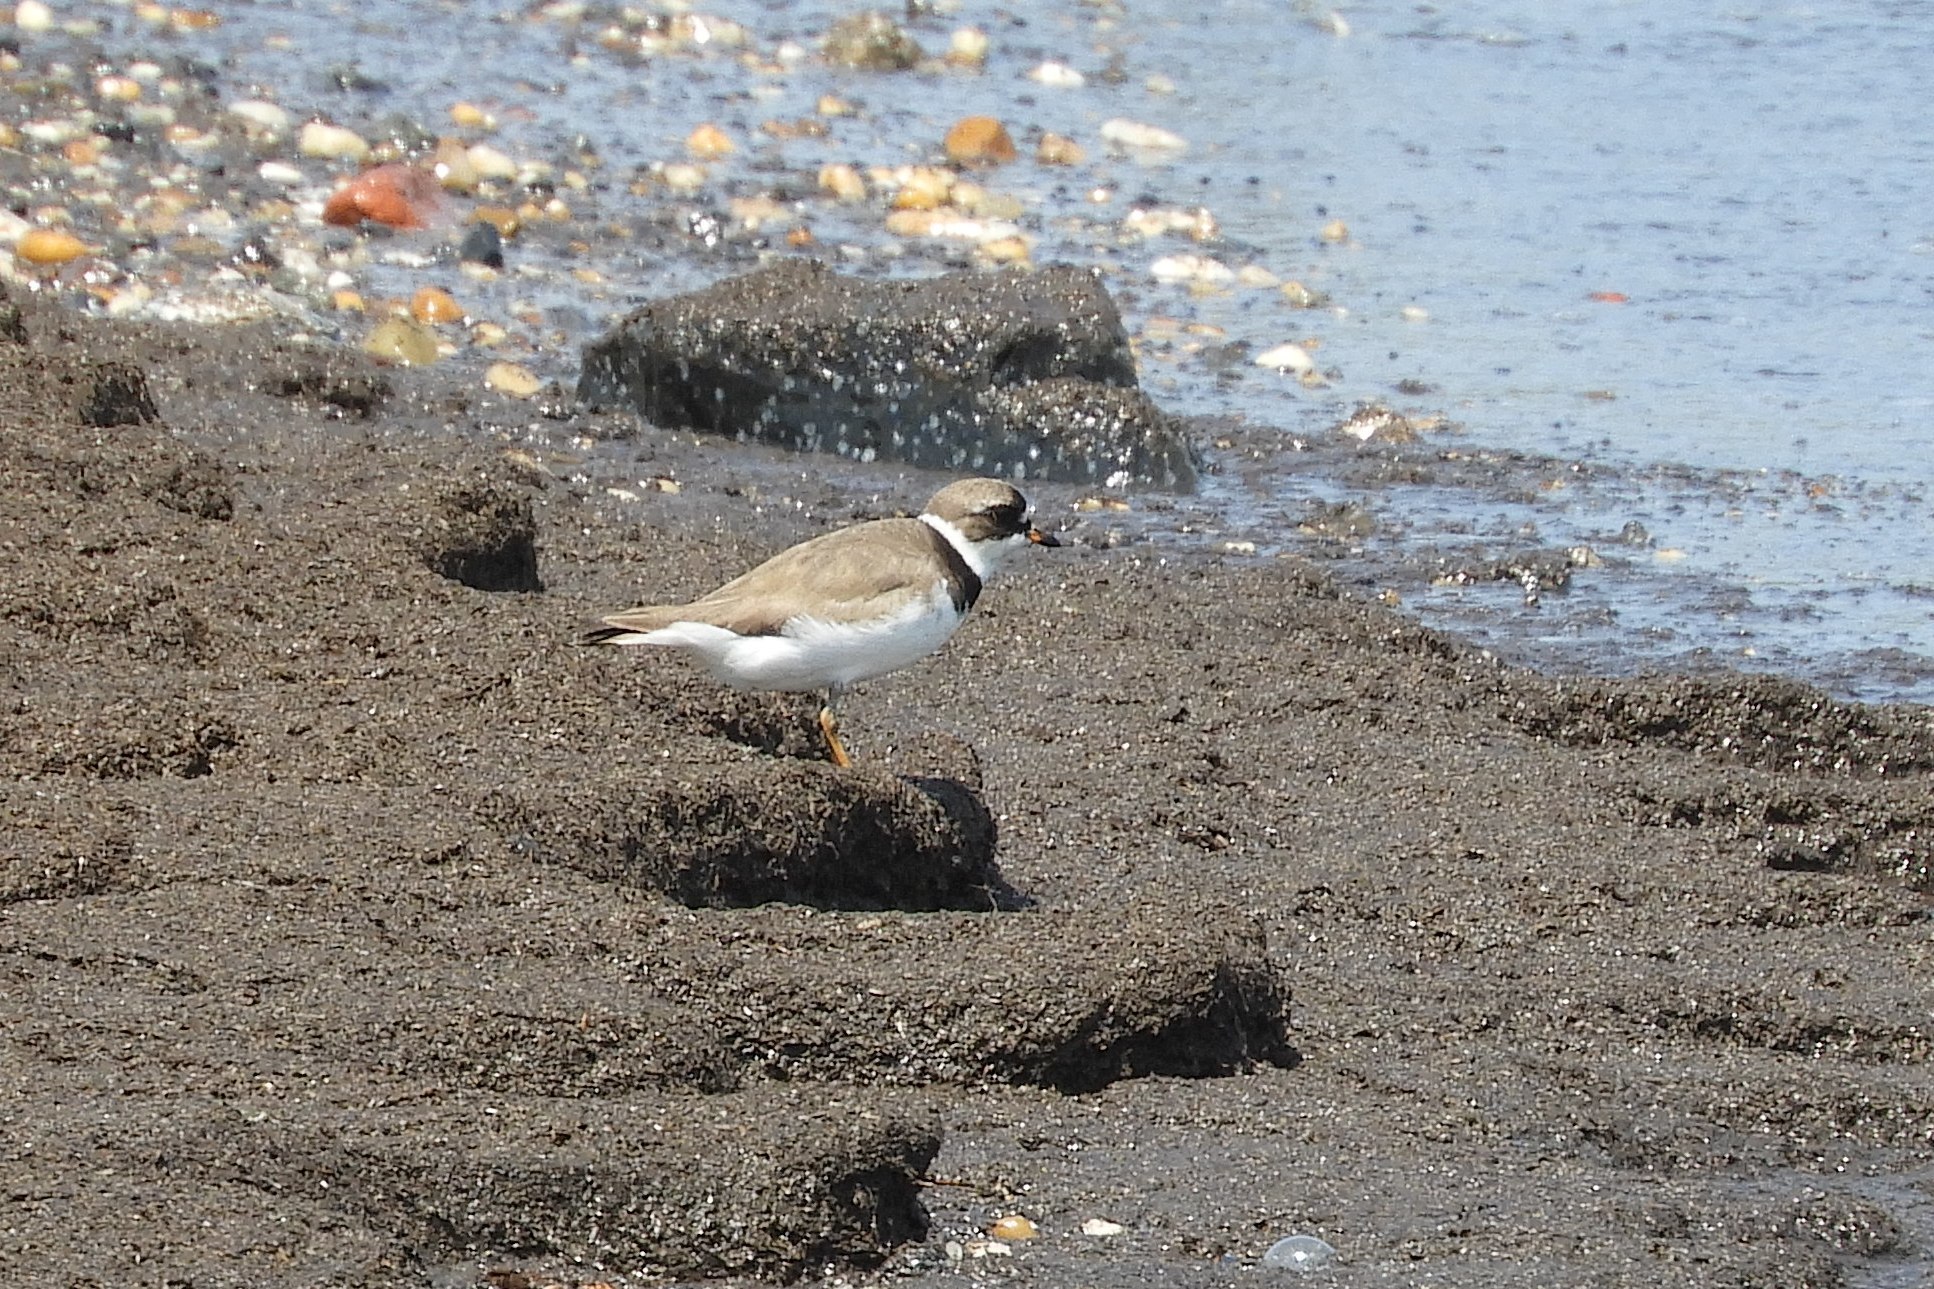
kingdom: Animalia
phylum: Chordata
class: Aves
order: Charadriiformes
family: Charadriidae
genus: Charadrius
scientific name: Charadrius semipalmatus
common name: Semipalmated plover
